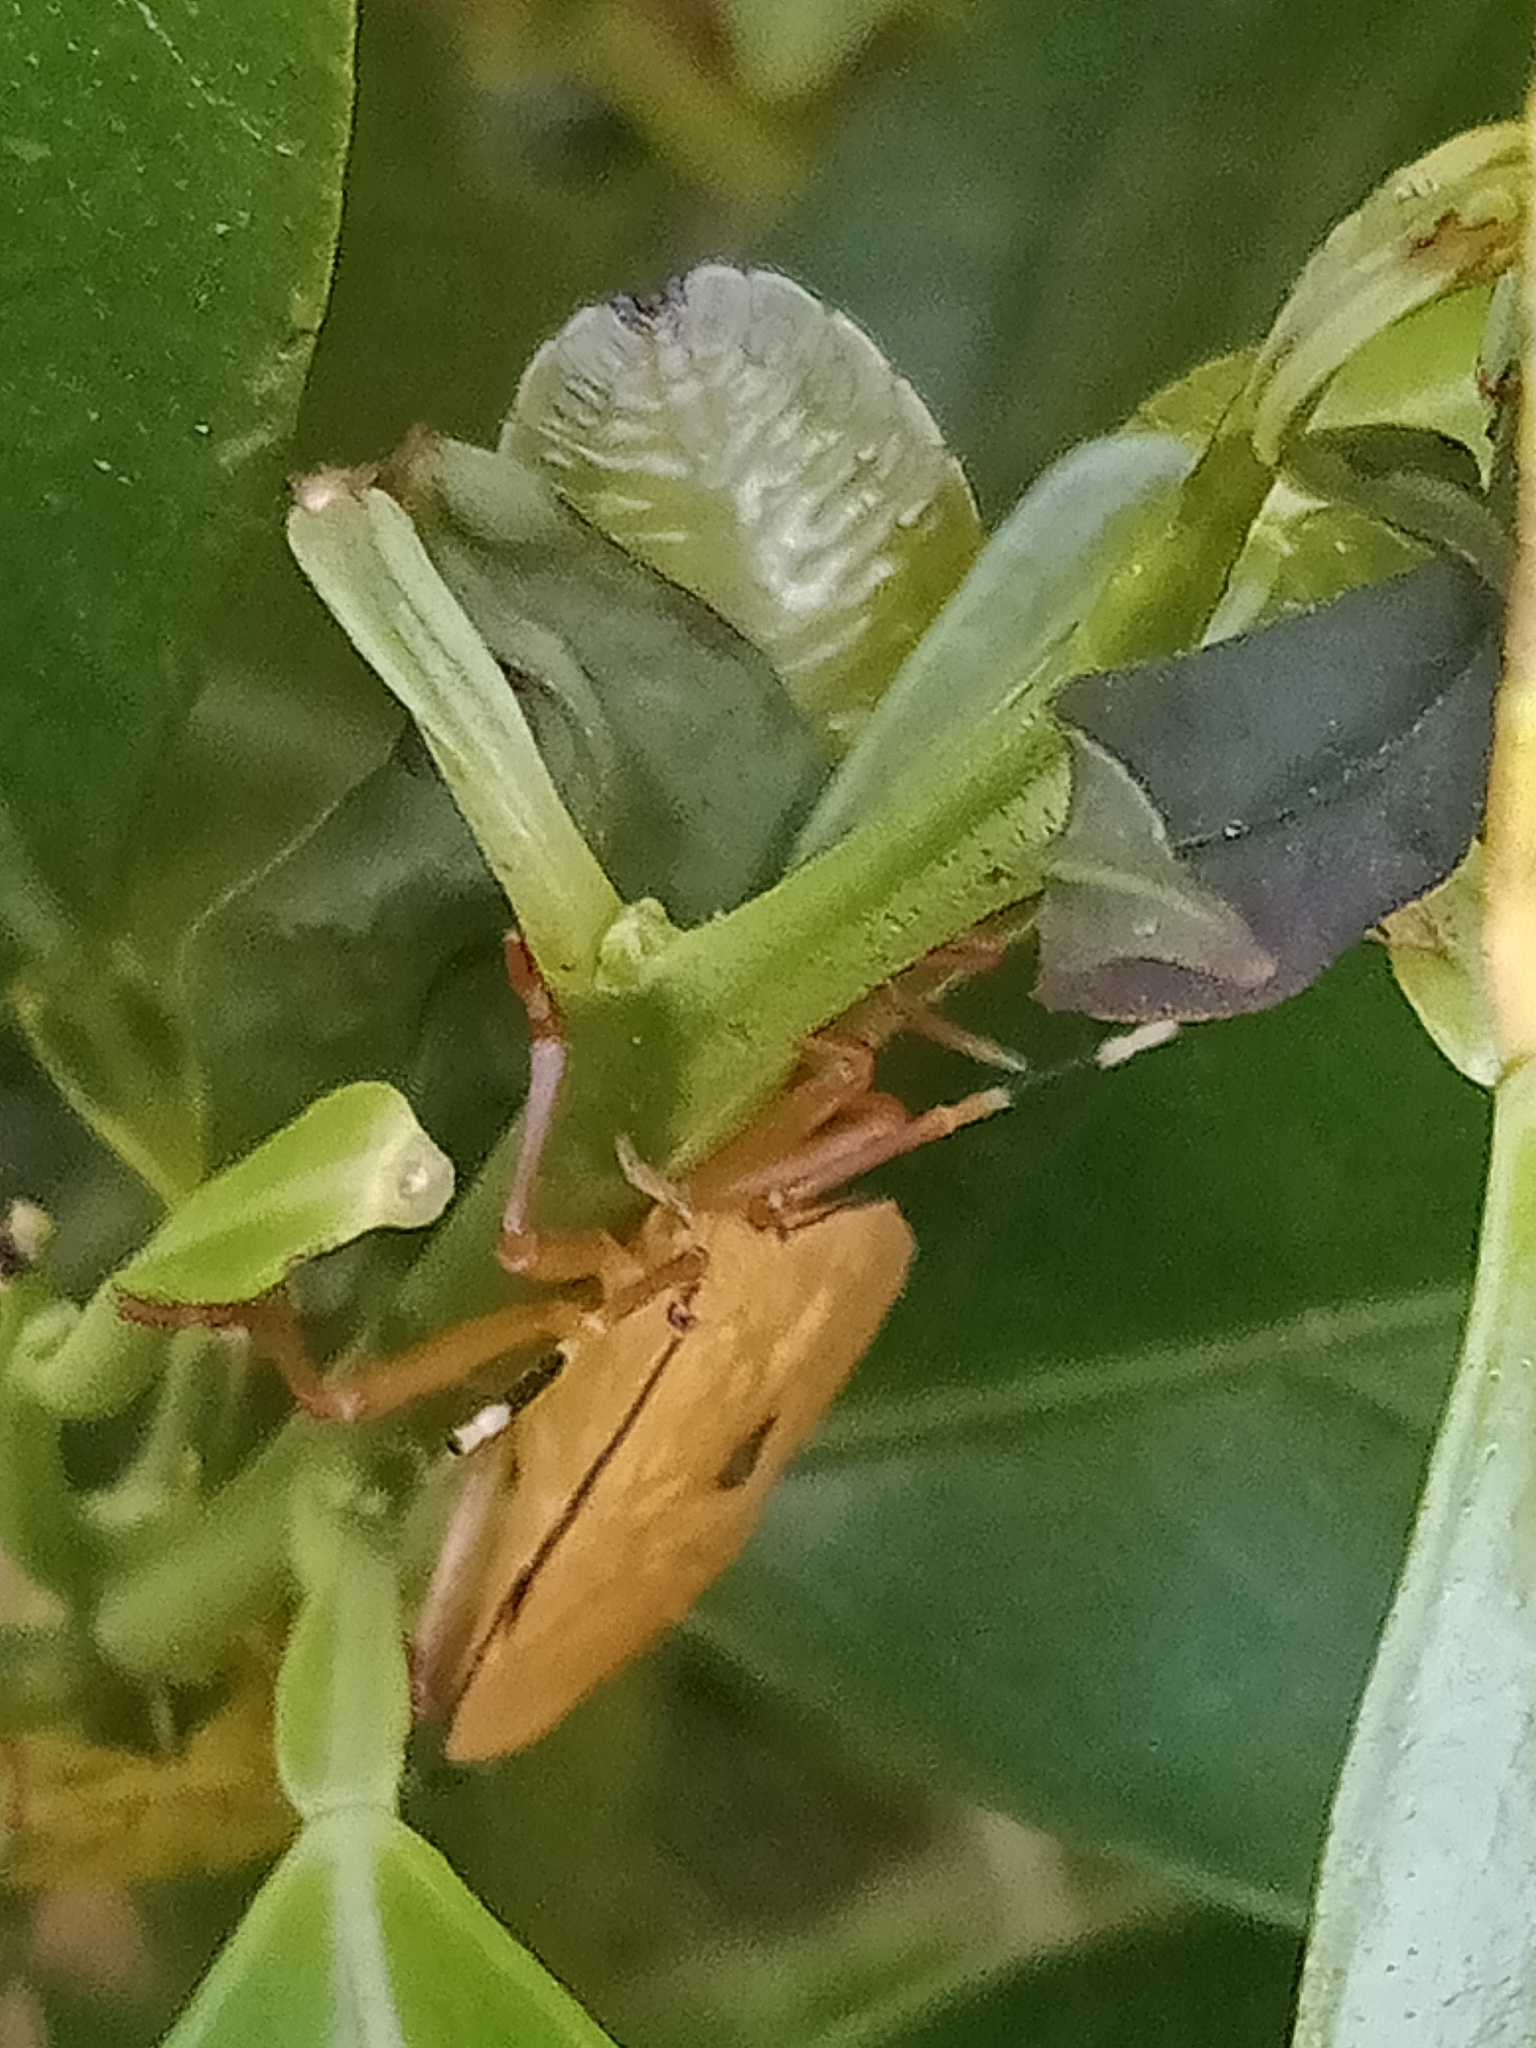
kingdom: Animalia
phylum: Arthropoda
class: Insecta
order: Hemiptera
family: Tessaratomidae
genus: Musgraveia
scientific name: Musgraveia sulciventris
